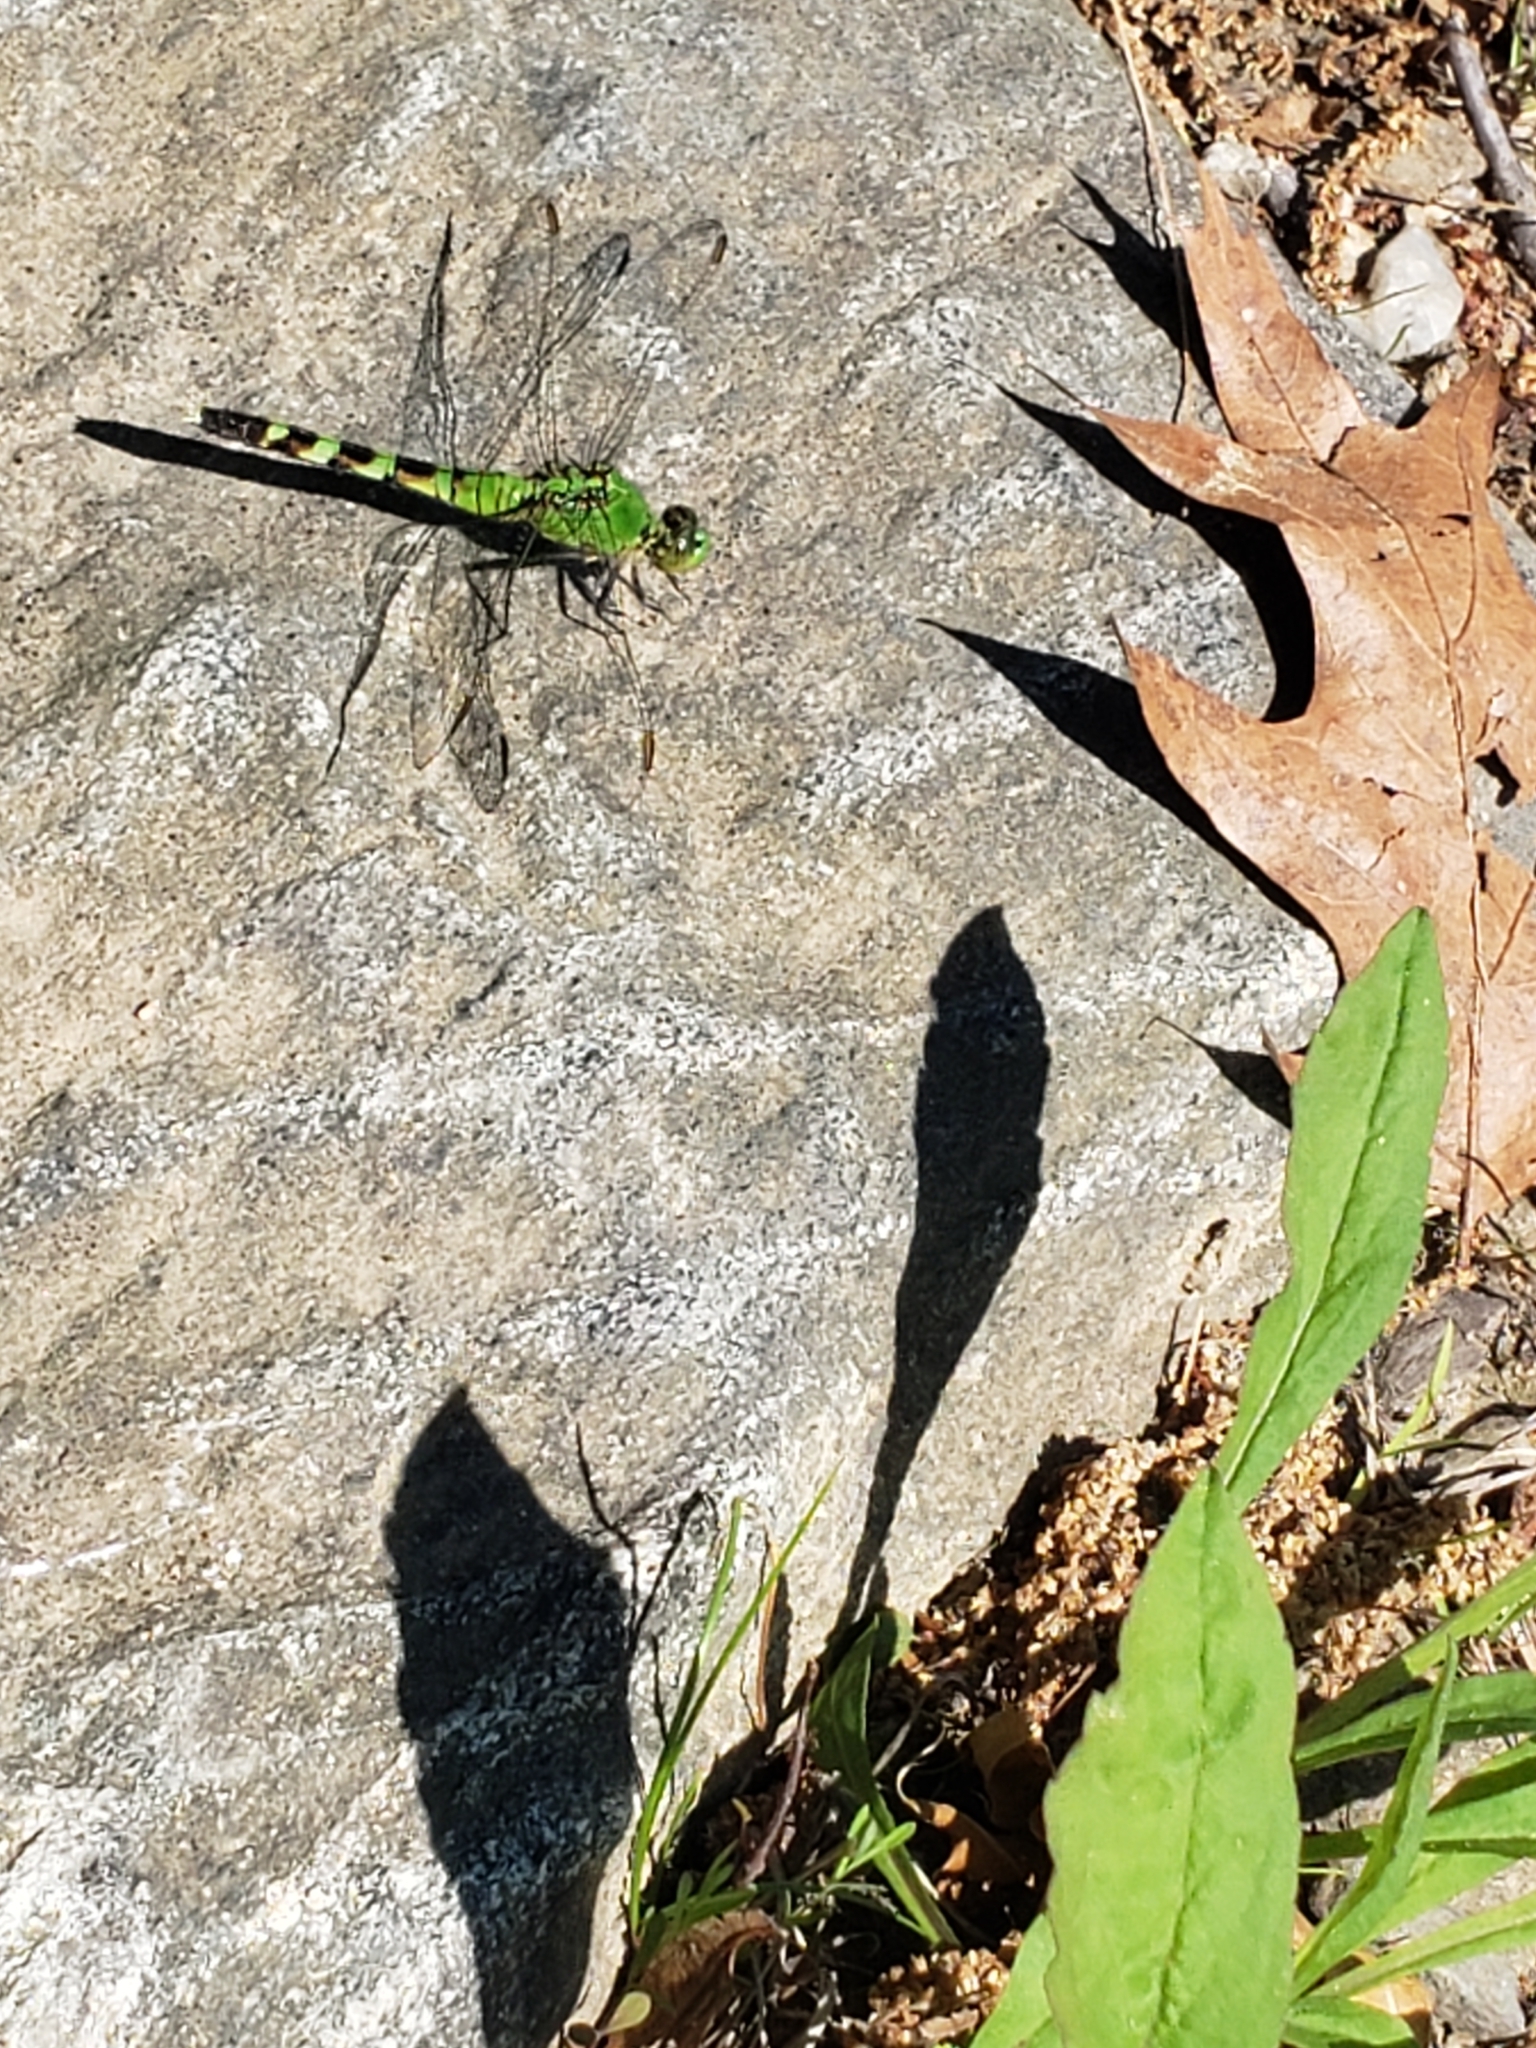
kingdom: Animalia
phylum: Arthropoda
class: Insecta
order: Odonata
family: Libellulidae
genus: Erythemis
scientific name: Erythemis simplicicollis
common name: Eastern pondhawk
